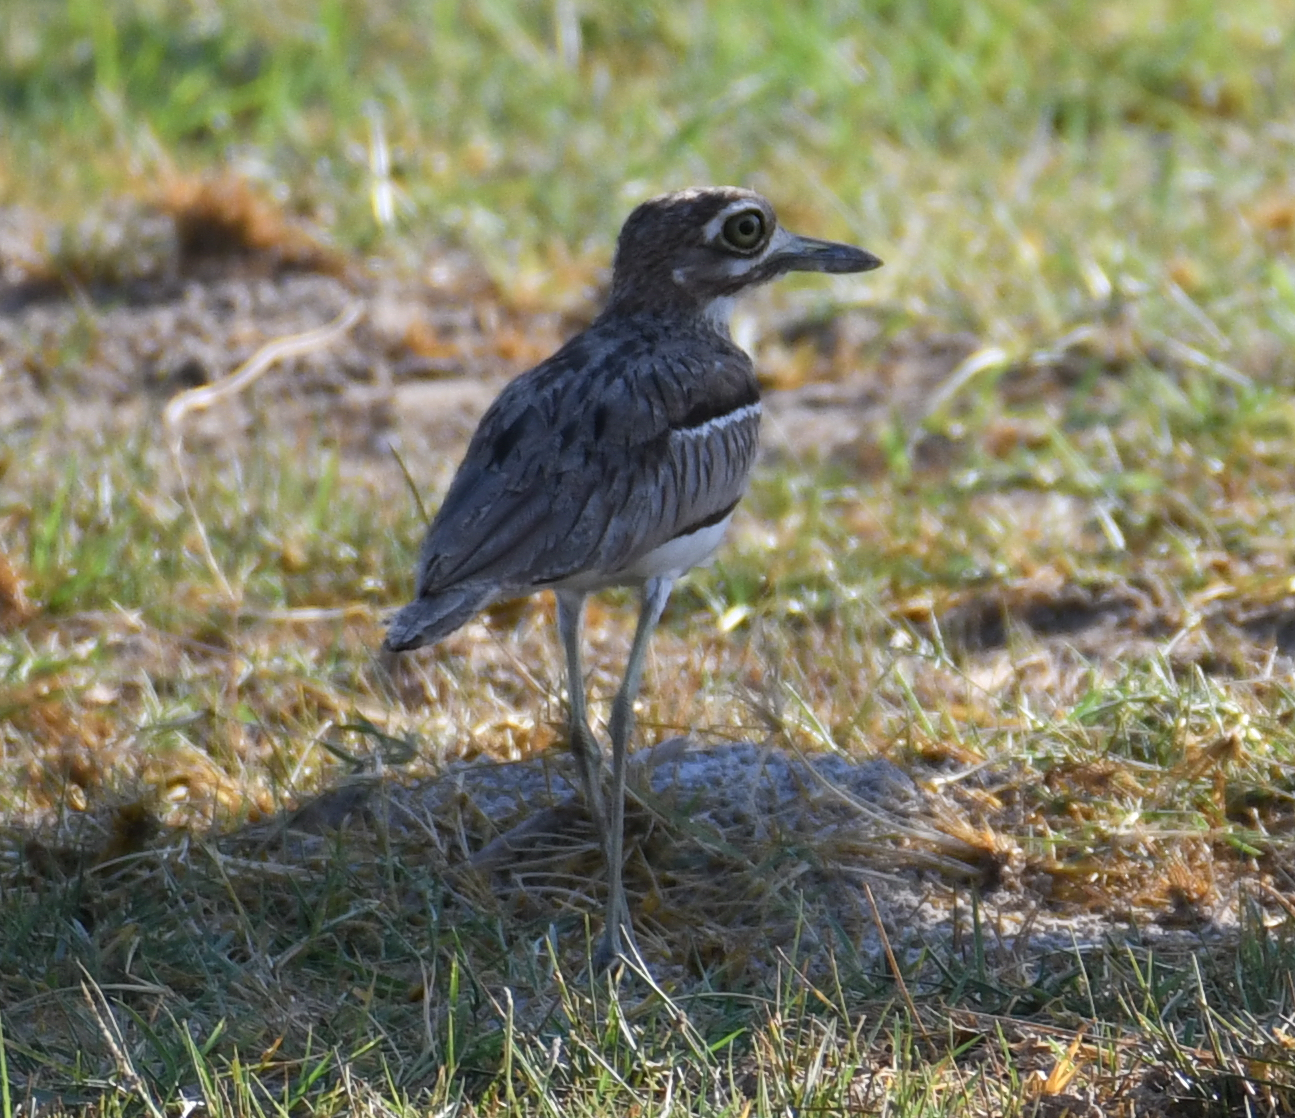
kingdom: Animalia
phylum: Chordata
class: Aves
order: Charadriiformes
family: Burhinidae
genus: Burhinus
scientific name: Burhinus vermiculatus
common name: Water thick-knee
